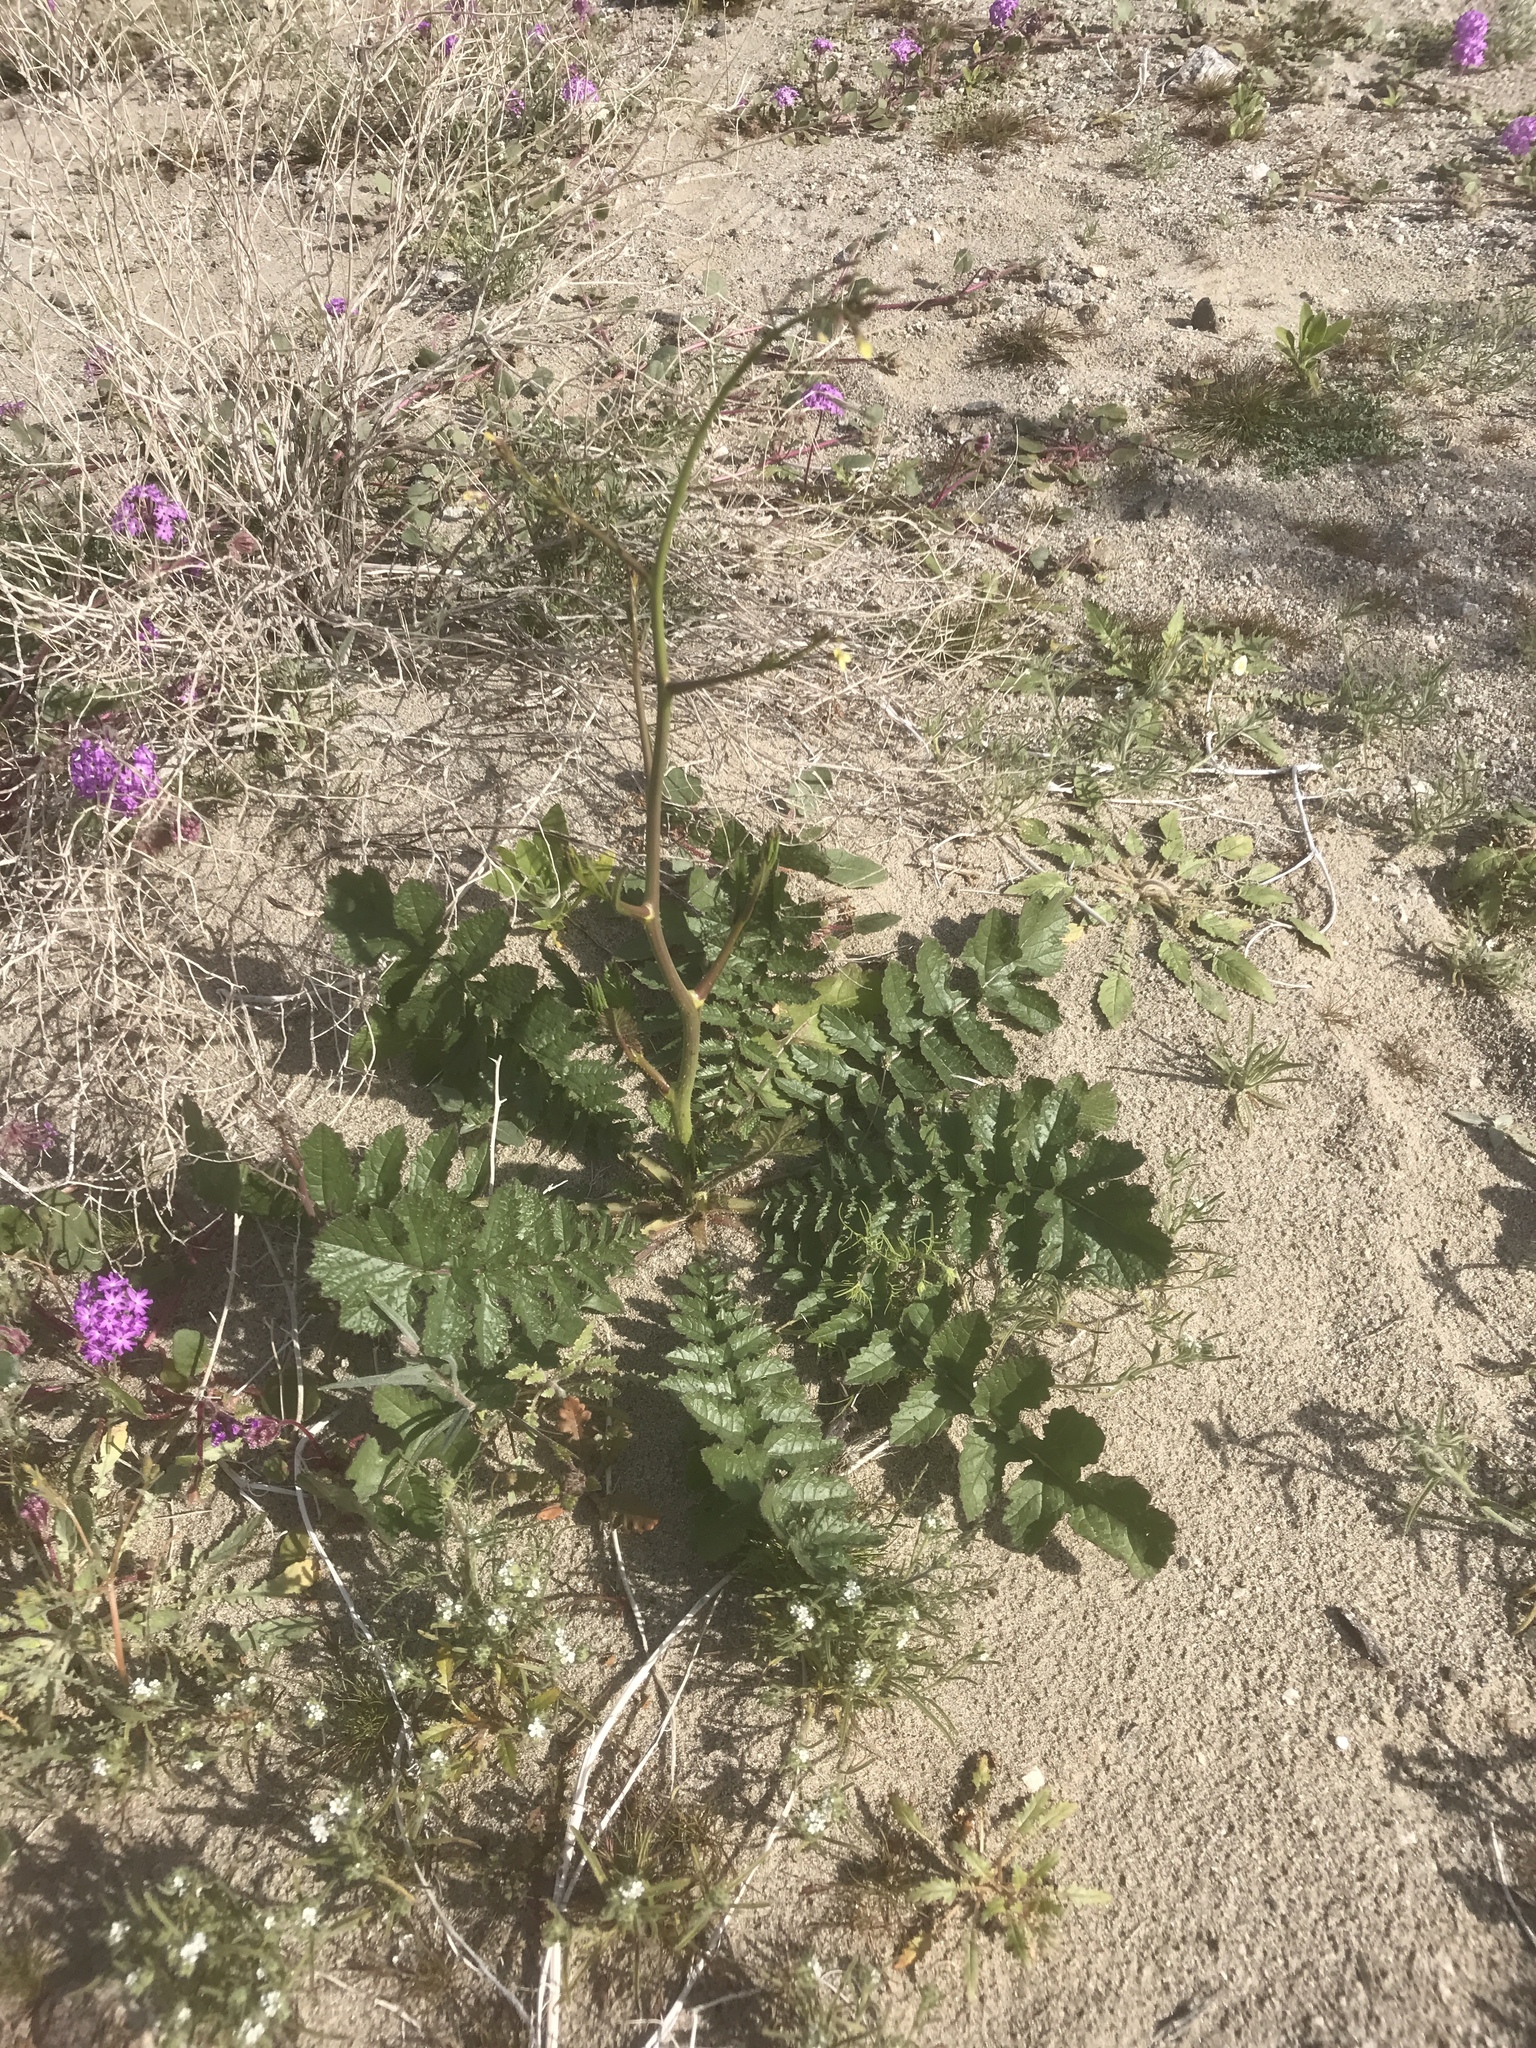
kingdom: Plantae
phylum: Tracheophyta
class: Magnoliopsida
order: Brassicales
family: Brassicaceae
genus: Brassica
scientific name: Brassica tournefortii
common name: Pale cabbage
